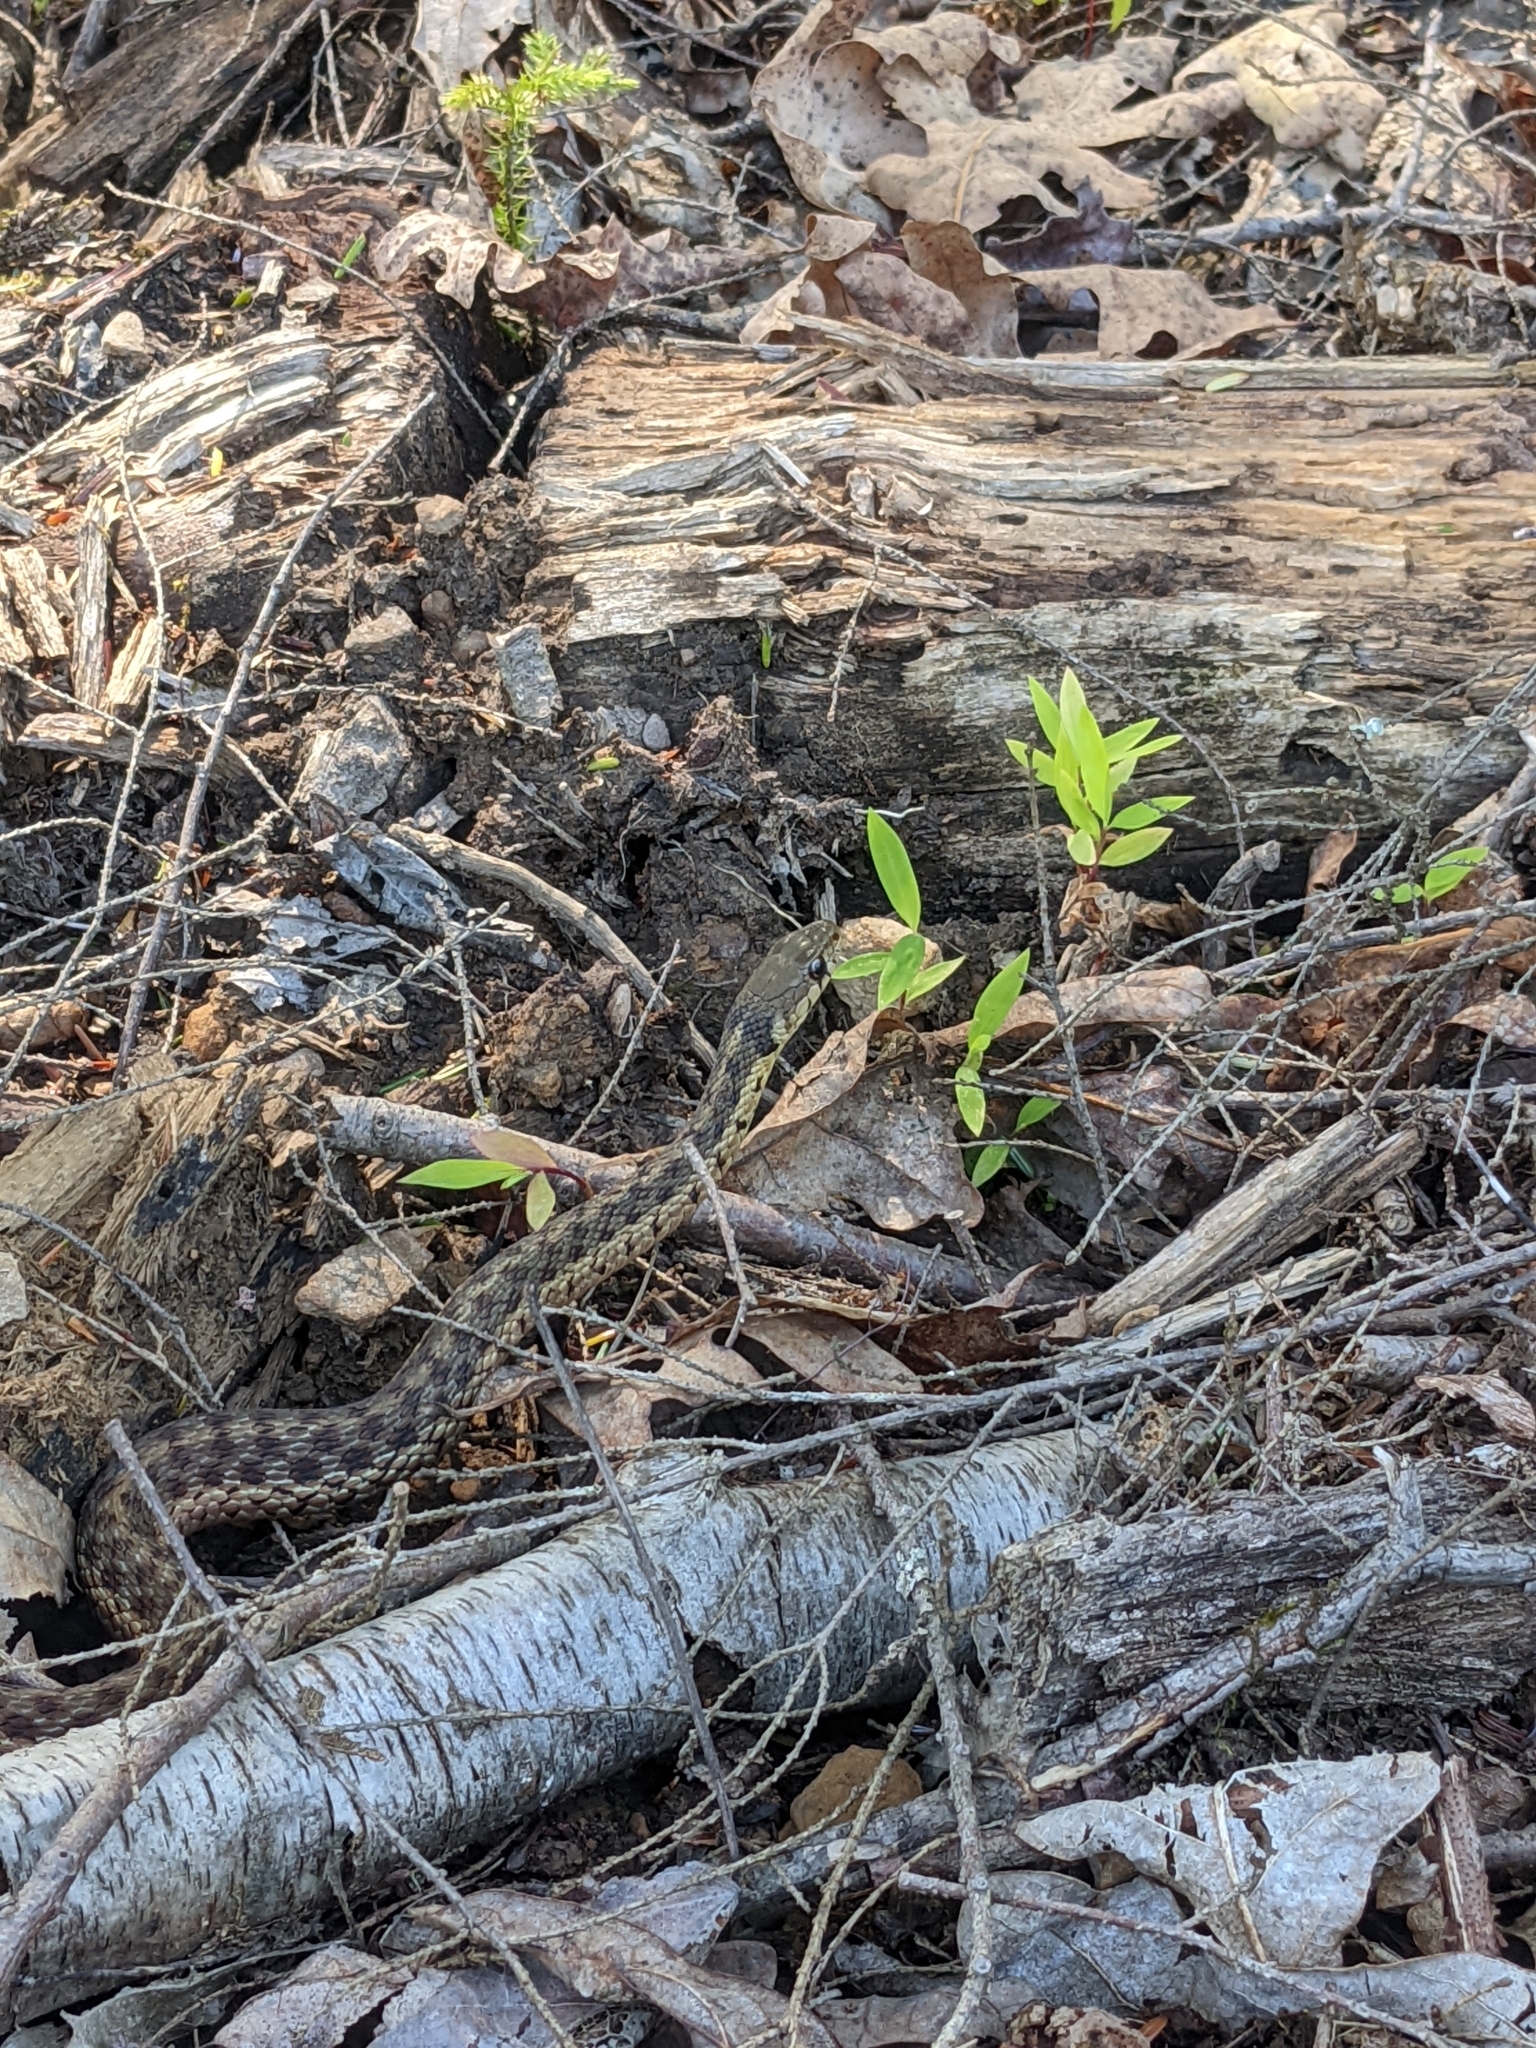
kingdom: Animalia
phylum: Chordata
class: Squamata
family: Colubridae
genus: Thamnophis
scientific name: Thamnophis sirtalis
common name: Common garter snake
